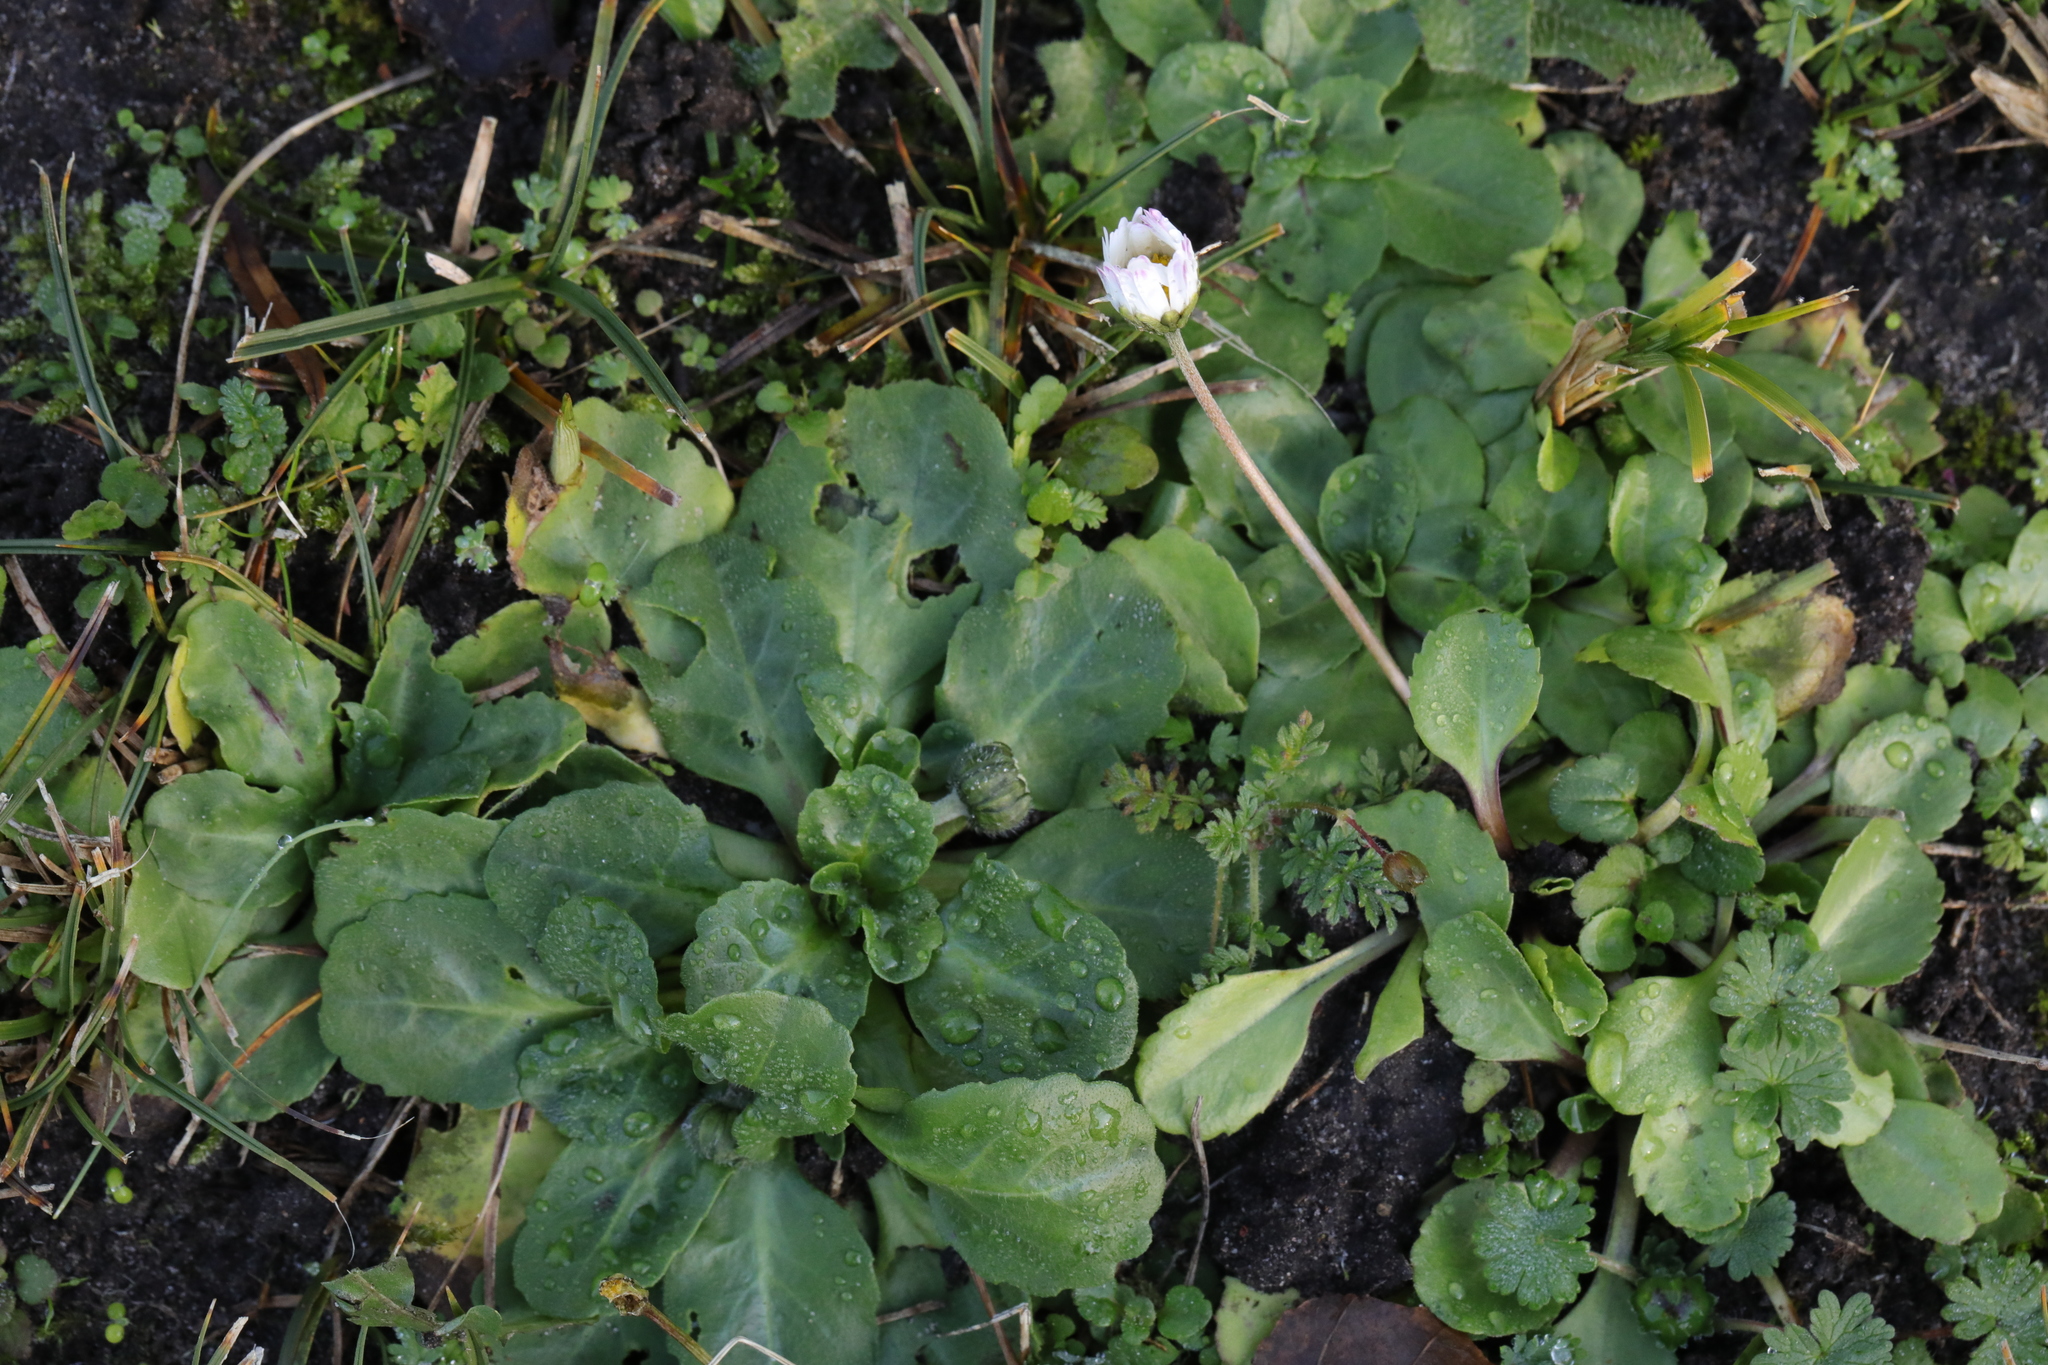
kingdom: Plantae
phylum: Tracheophyta
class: Magnoliopsida
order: Asterales
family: Asteraceae
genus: Bellis
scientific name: Bellis perennis
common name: Lawndaisy
